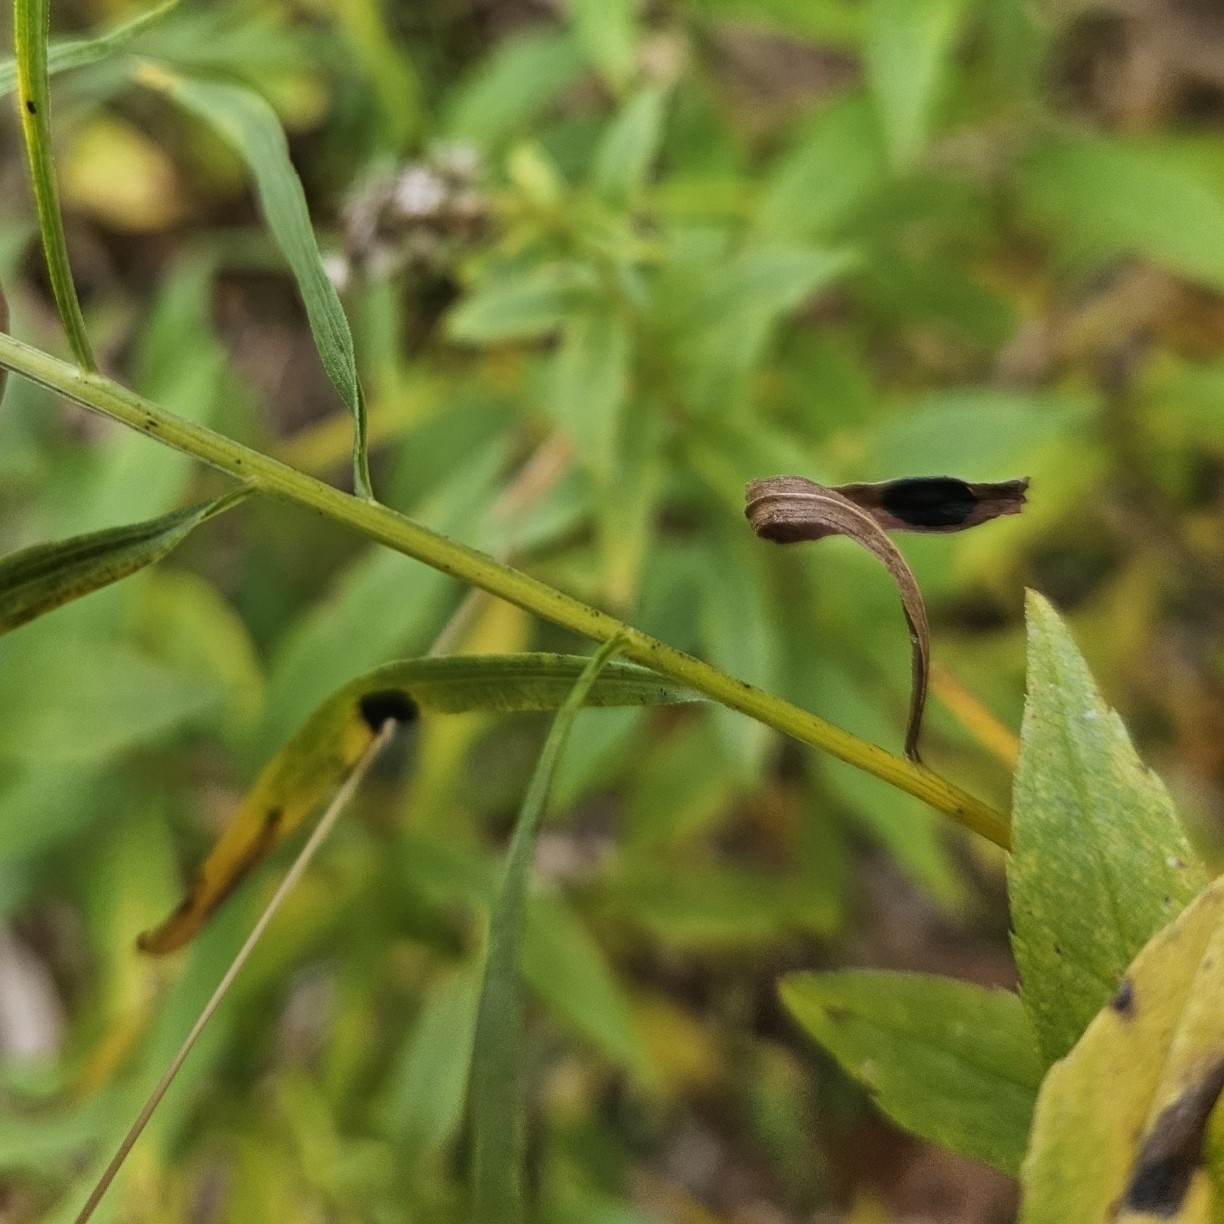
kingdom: Animalia
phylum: Arthropoda
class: Insecta
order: Diptera
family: Cecidomyiidae
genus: Asteromyia
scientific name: Asteromyia euthamiae
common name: Euthamia leaf gall midge
